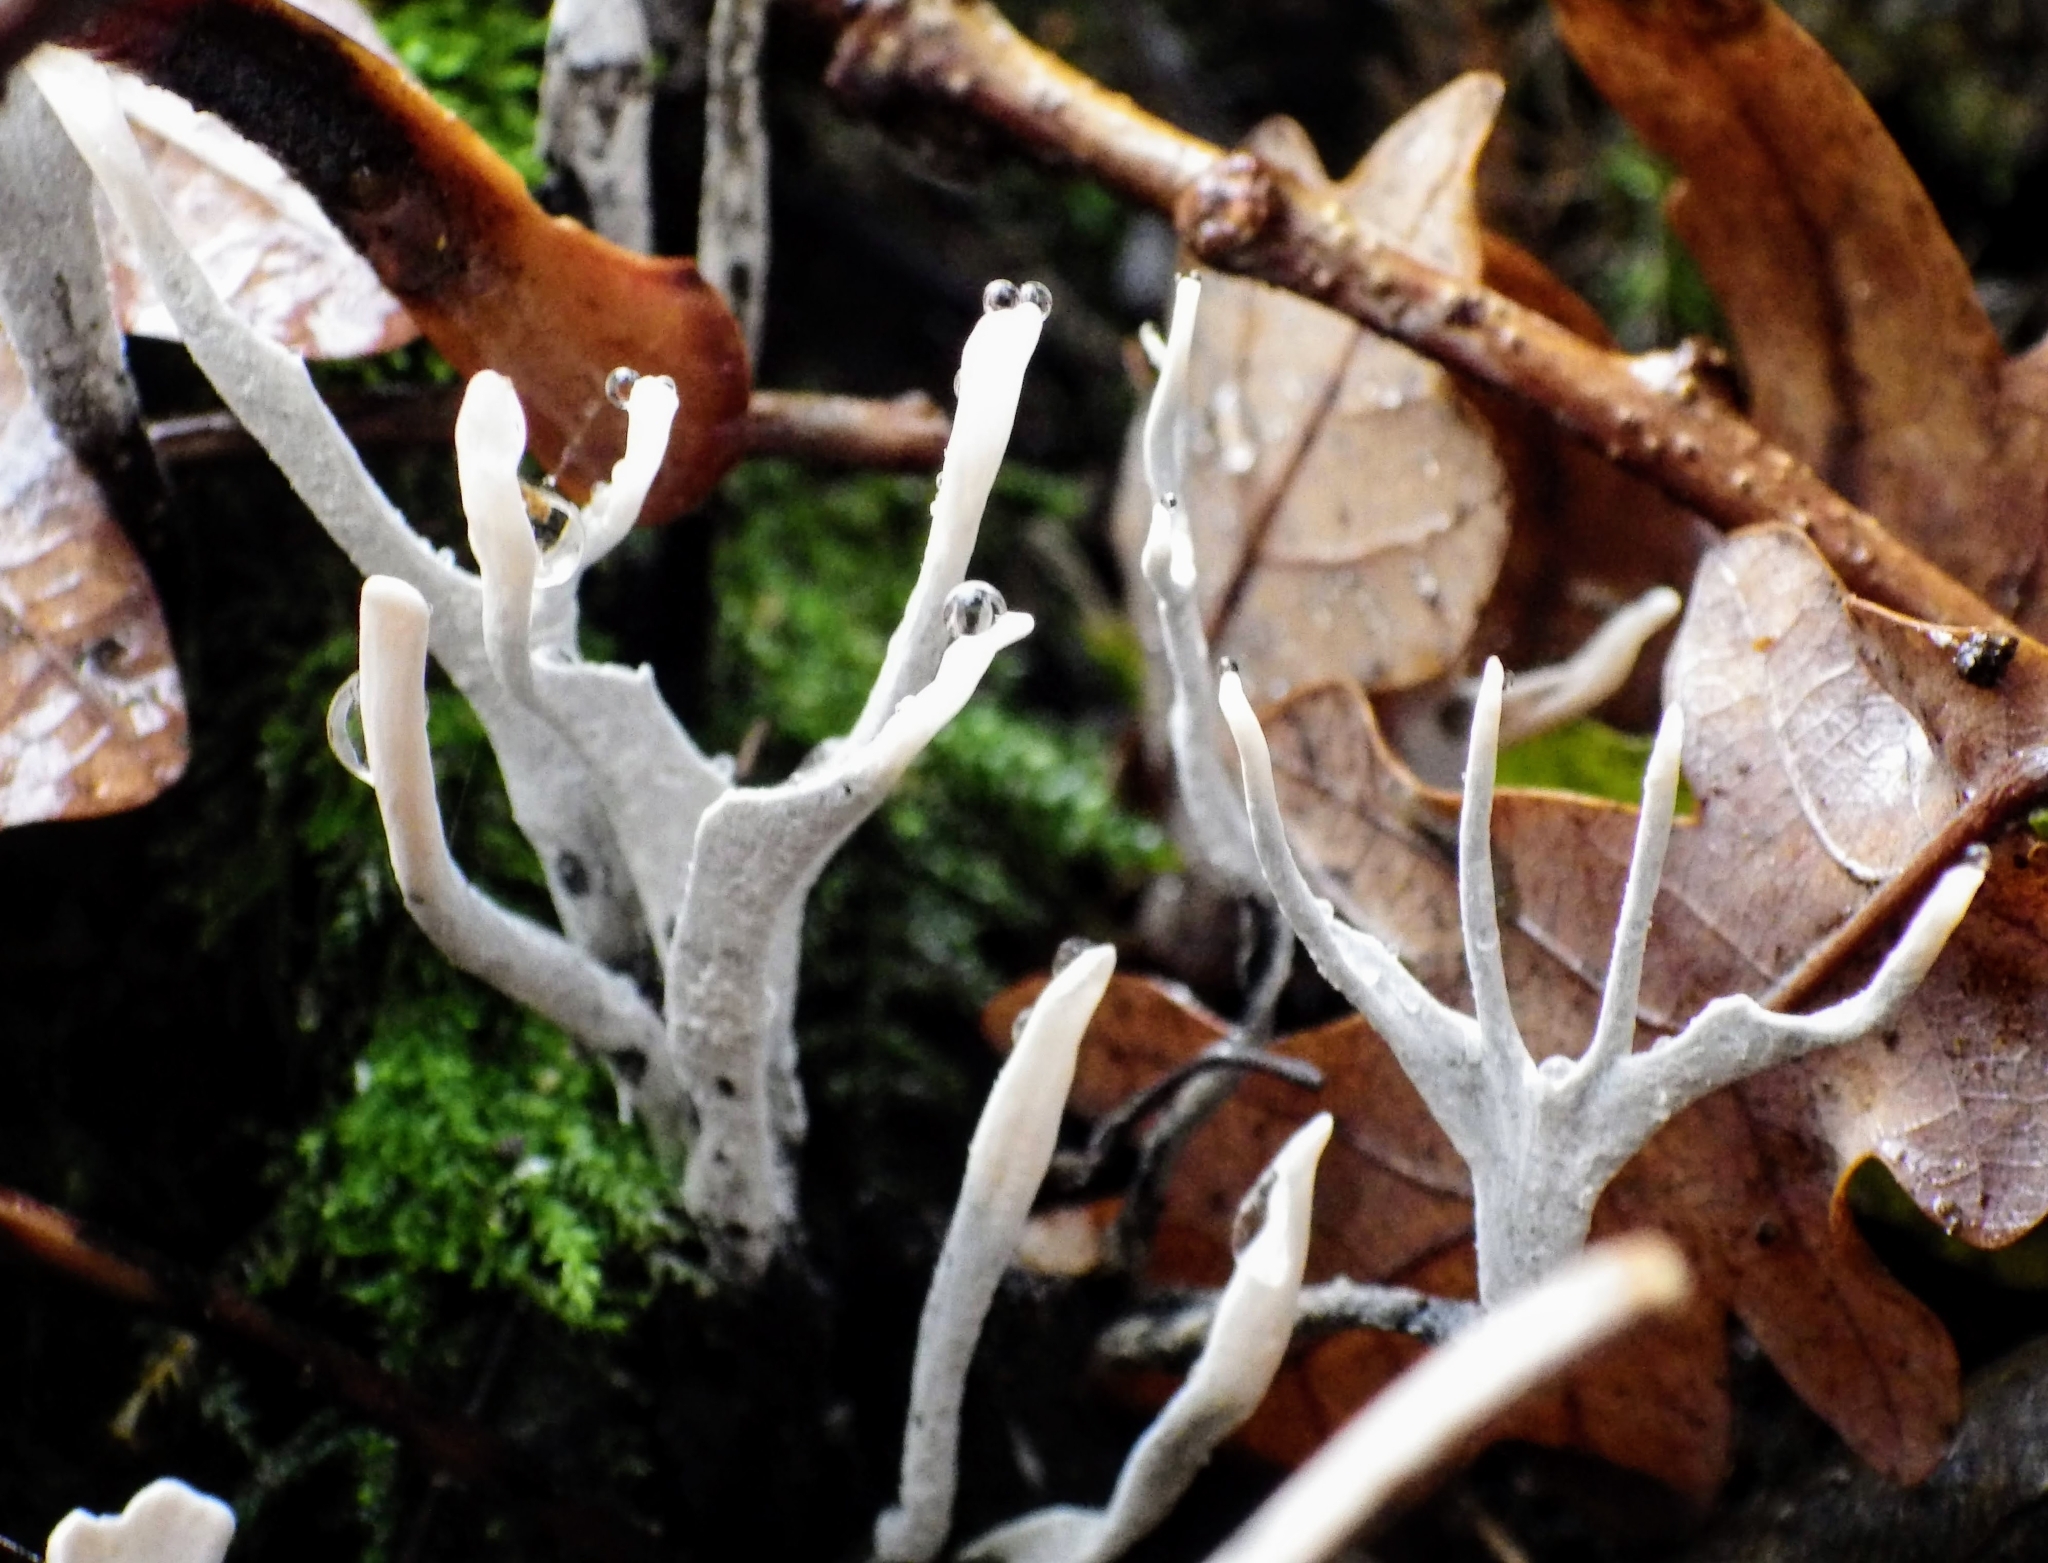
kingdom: Fungi
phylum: Ascomycota
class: Sordariomycetes
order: Xylariales
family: Xylariaceae
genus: Xylaria
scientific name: Xylaria hypoxylon
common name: Candle-snuff fungus
